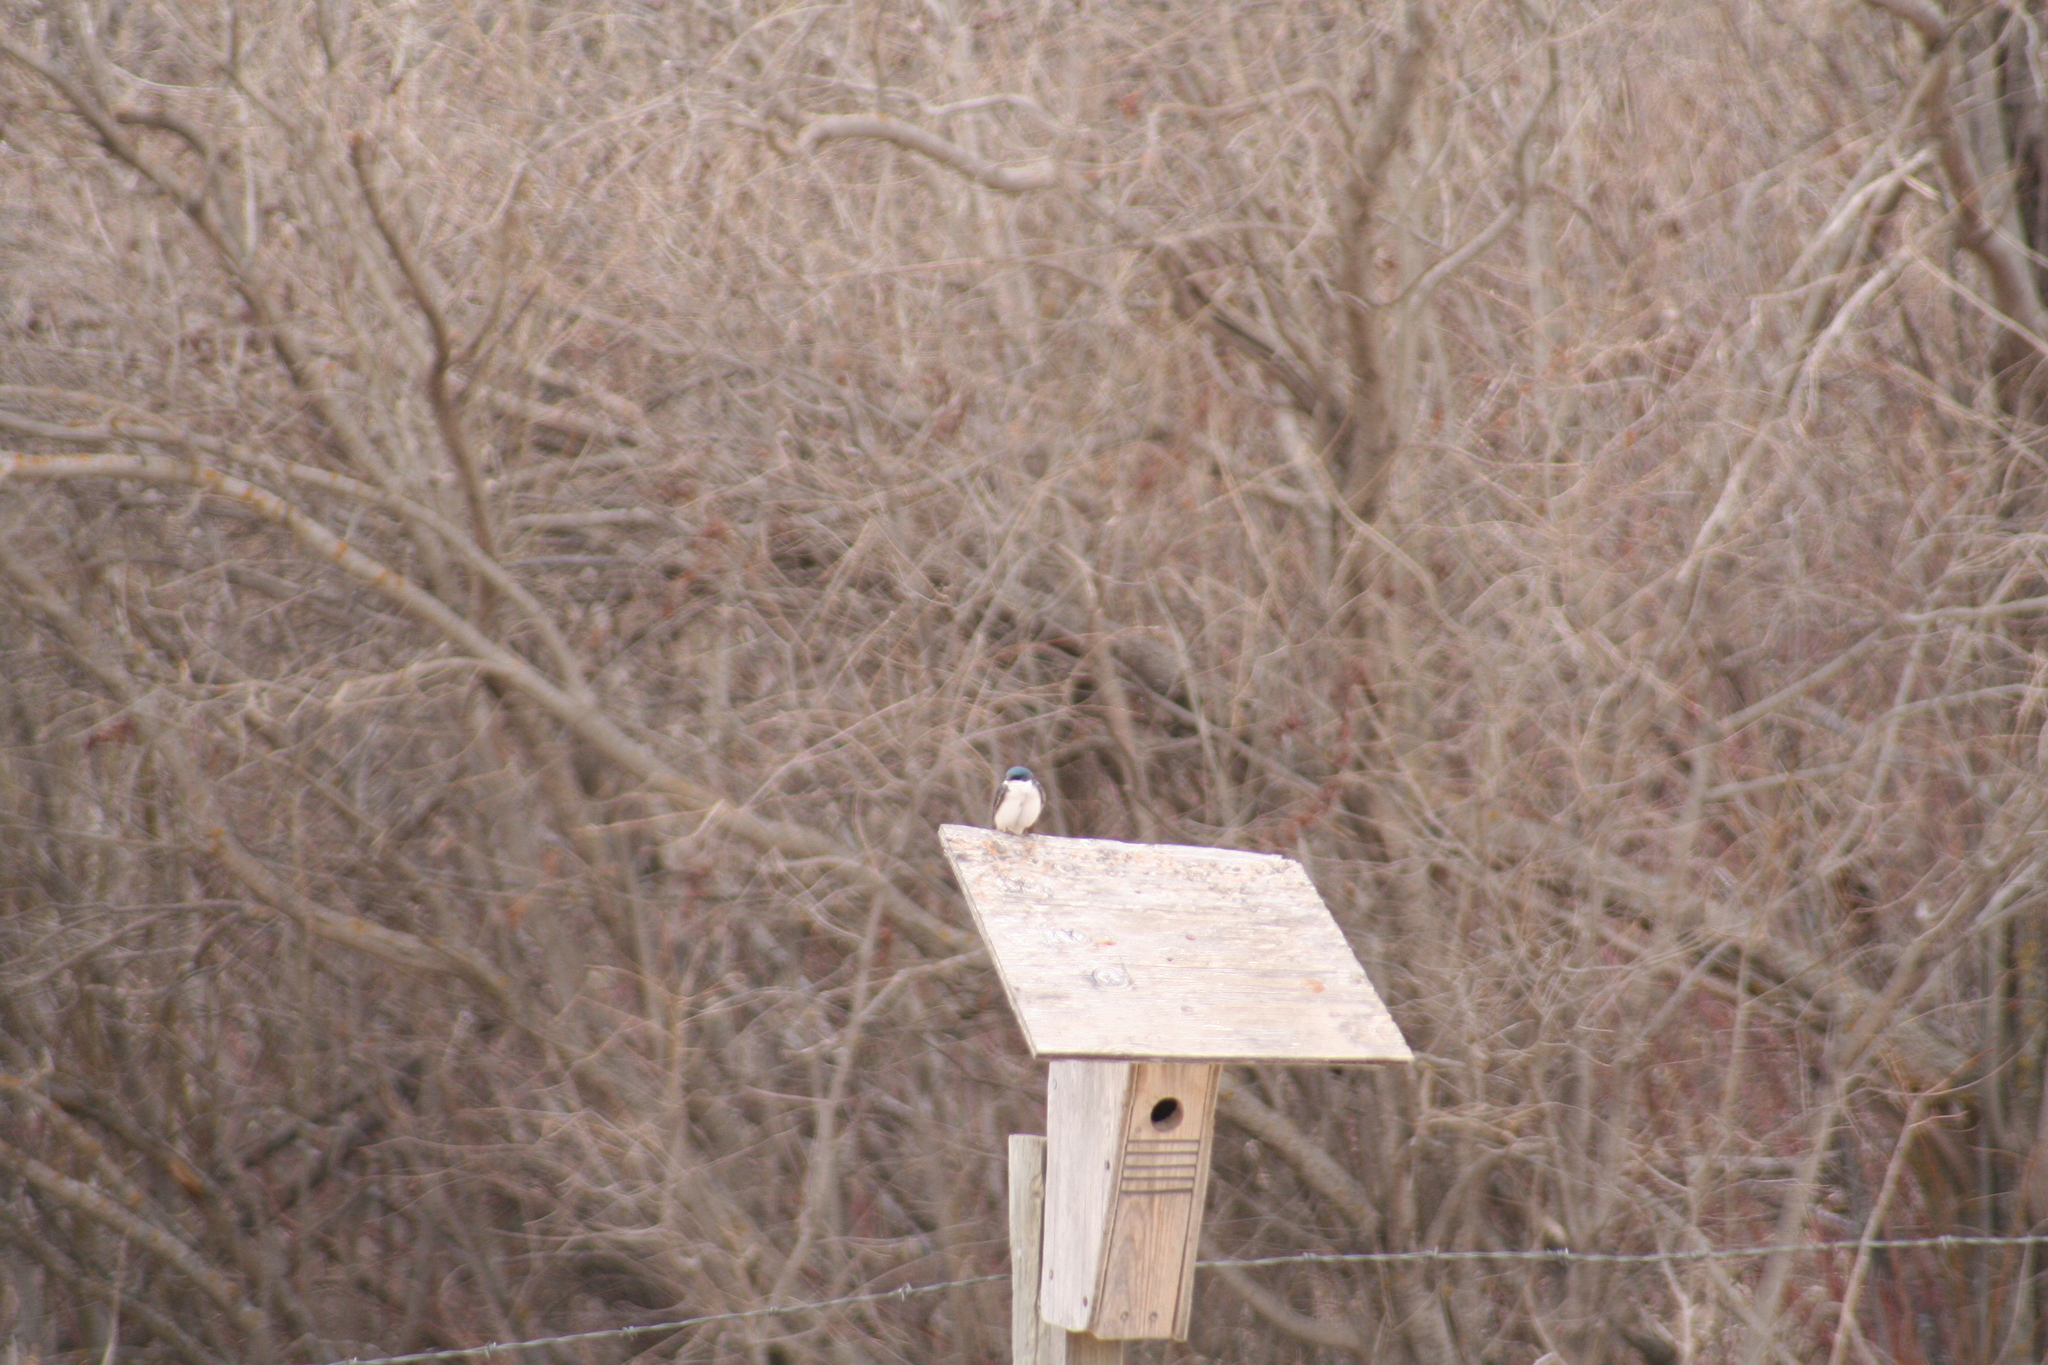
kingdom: Animalia
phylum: Chordata
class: Aves
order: Passeriformes
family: Hirundinidae
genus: Tachycineta
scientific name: Tachycineta bicolor
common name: Tree swallow
